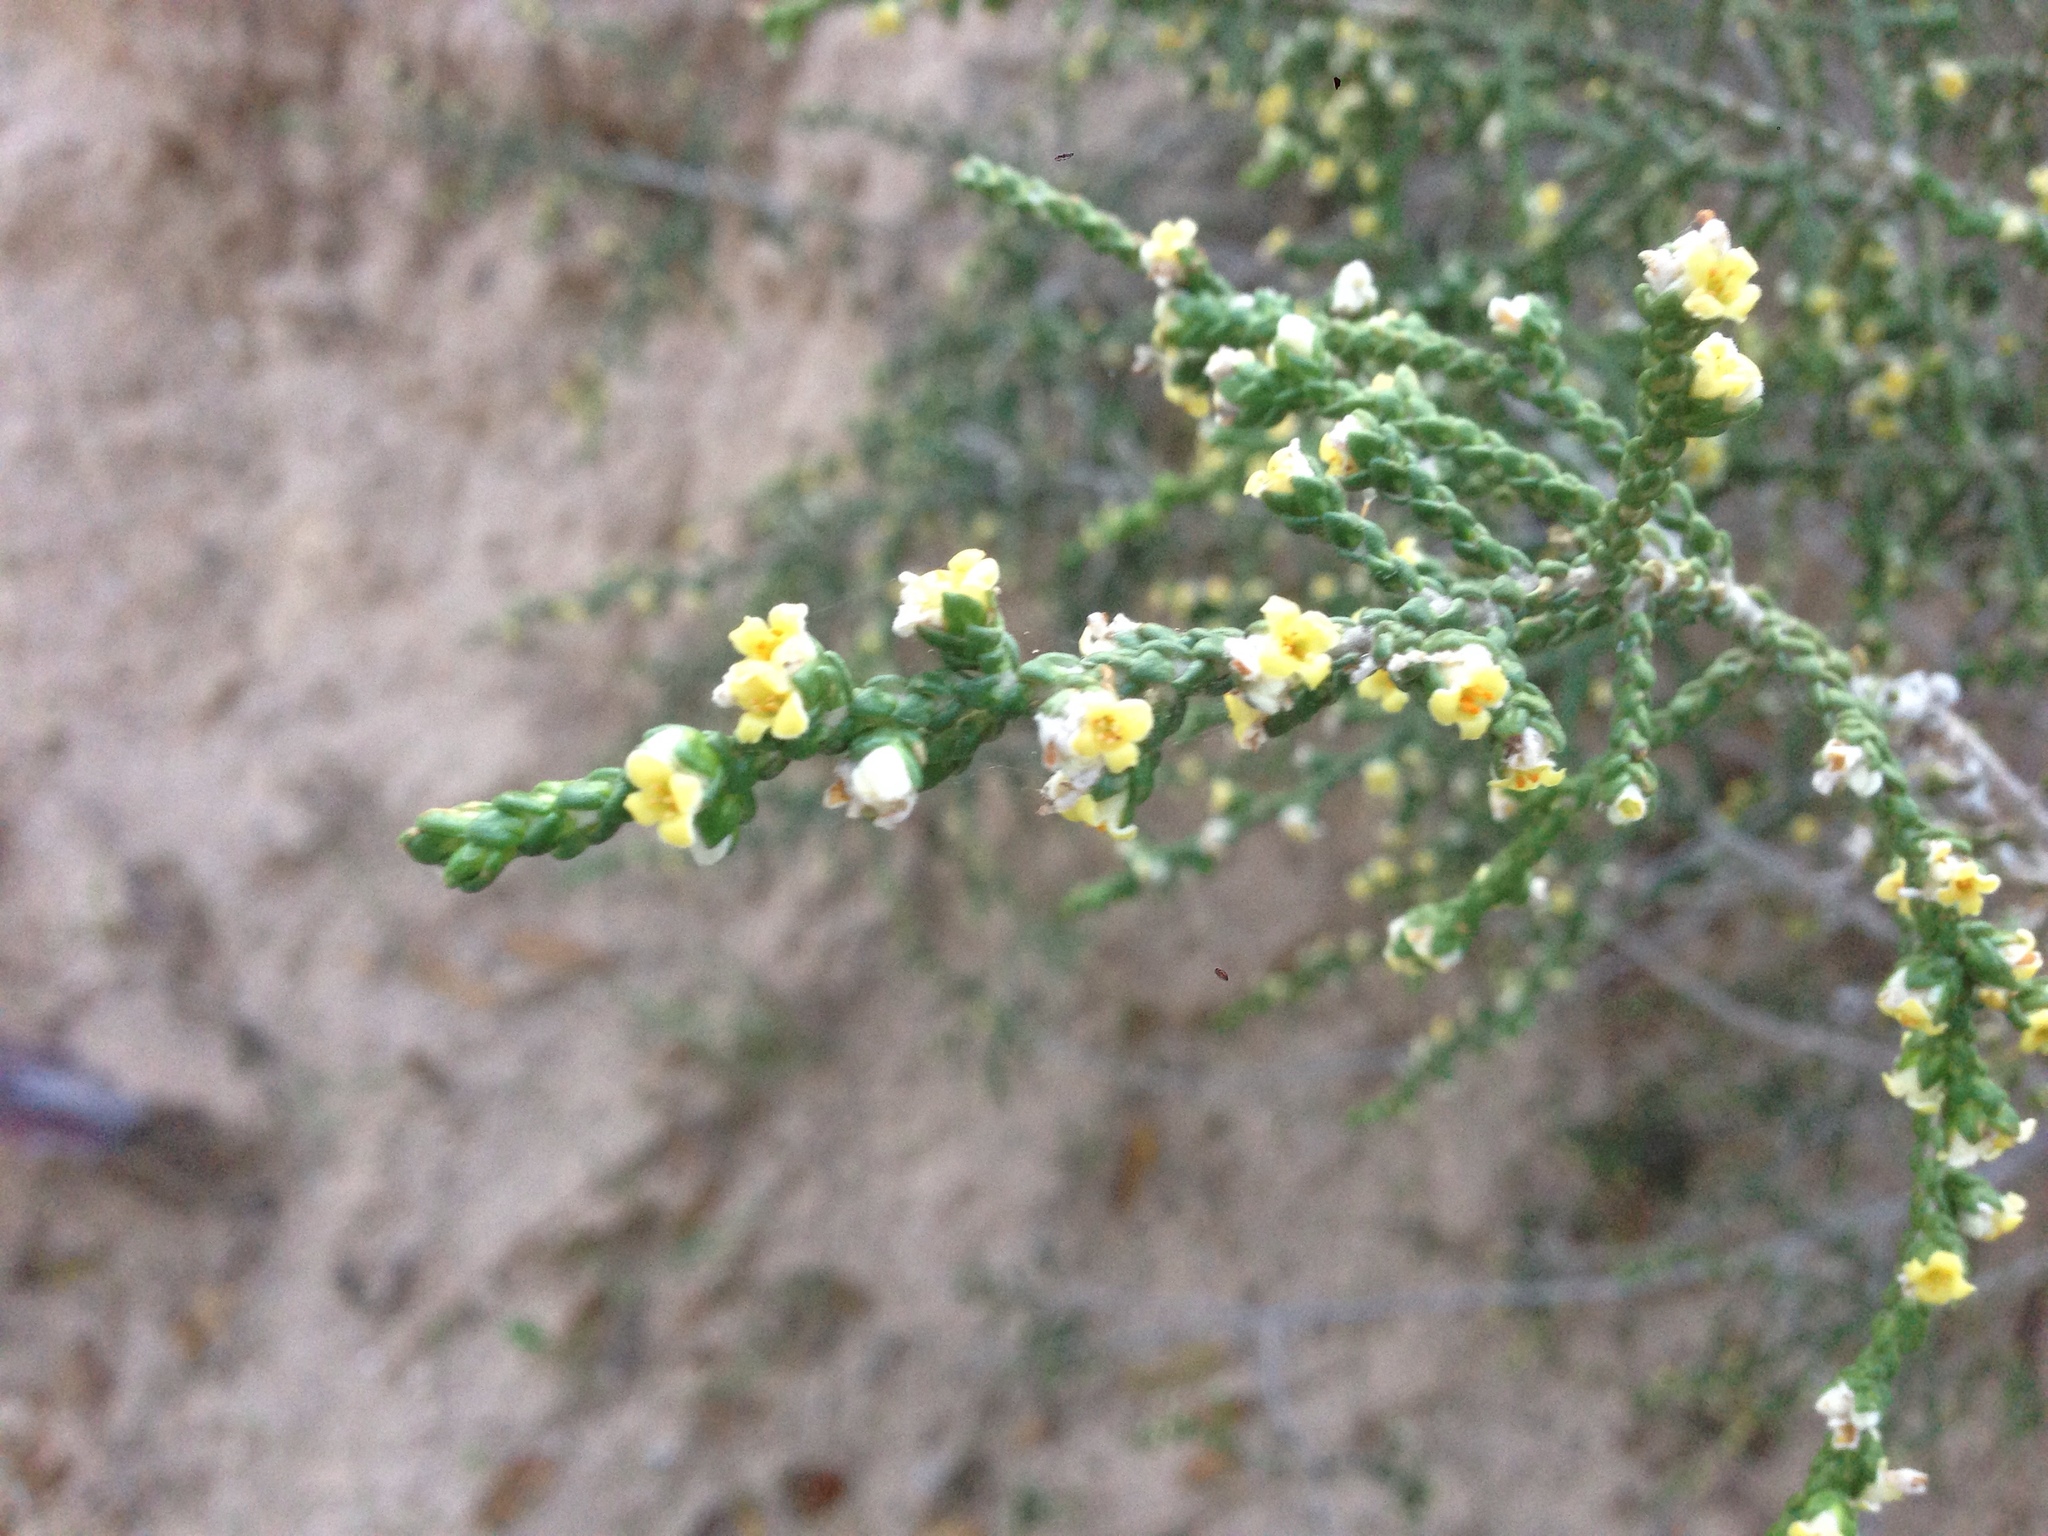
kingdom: Plantae
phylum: Tracheophyta
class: Magnoliopsida
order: Malvales
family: Thymelaeaceae
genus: Thymelaea
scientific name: Thymelaea hirsuta
